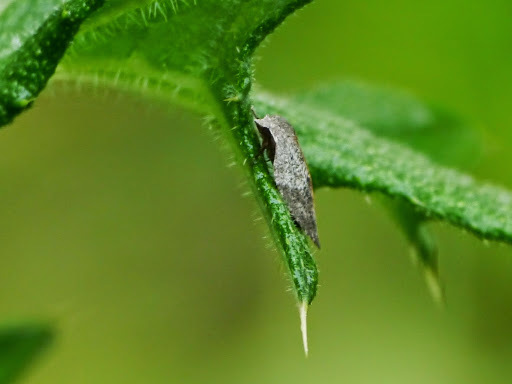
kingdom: Animalia
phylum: Arthropoda
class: Insecta
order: Lepidoptera
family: Tortricidae
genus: Amorbia
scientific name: Amorbia humerosana
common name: White-lined leafroller moth
